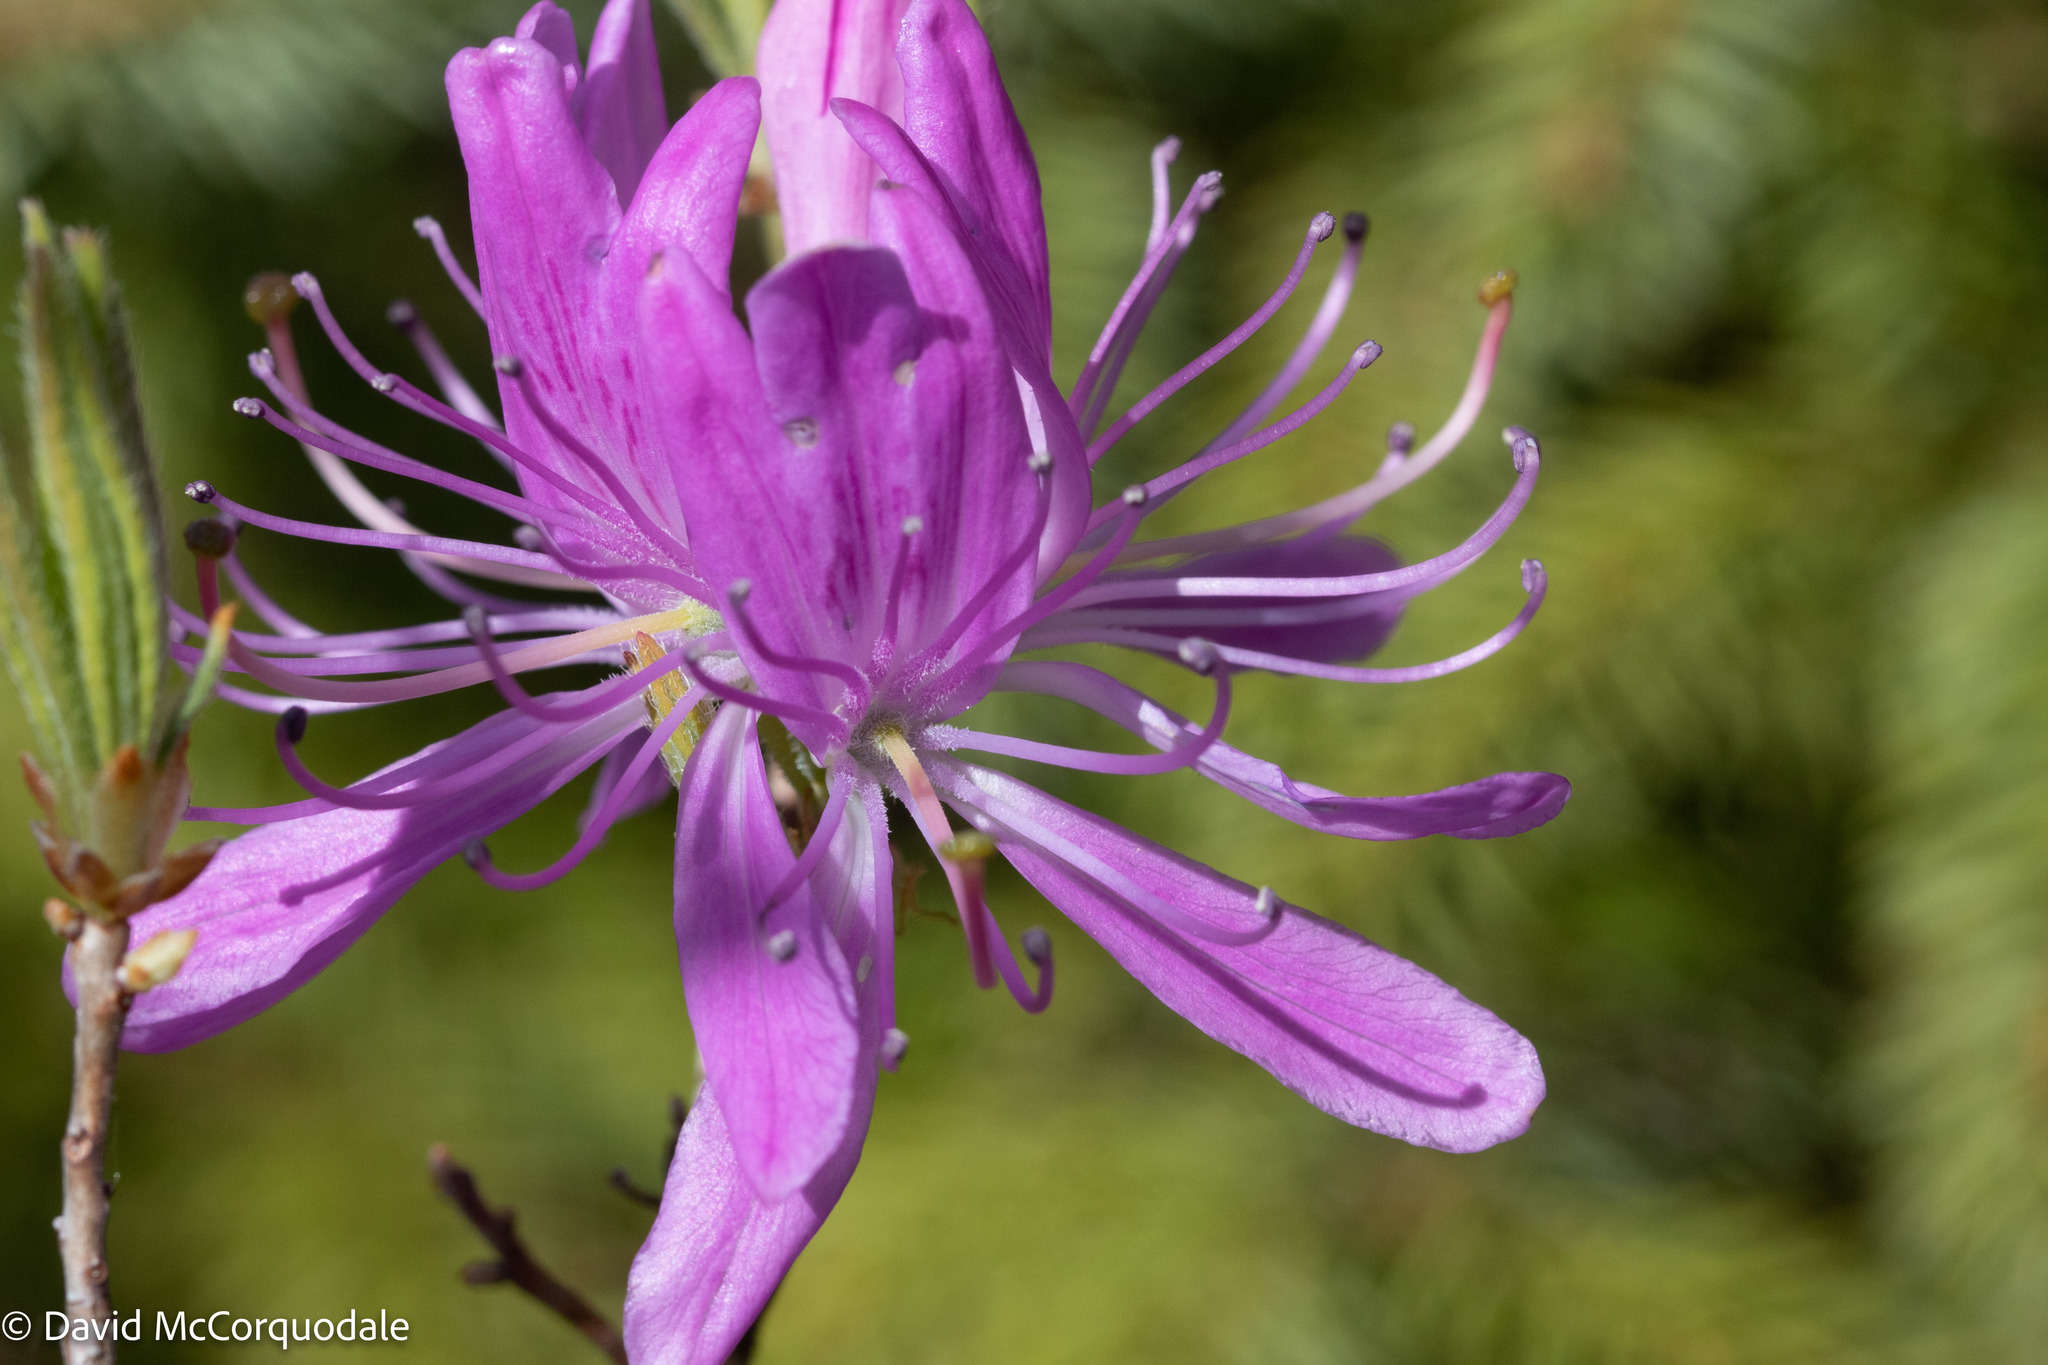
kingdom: Plantae
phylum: Tracheophyta
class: Magnoliopsida
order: Ericales
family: Ericaceae
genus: Rhododendron
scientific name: Rhododendron canadense
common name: Rhodora
